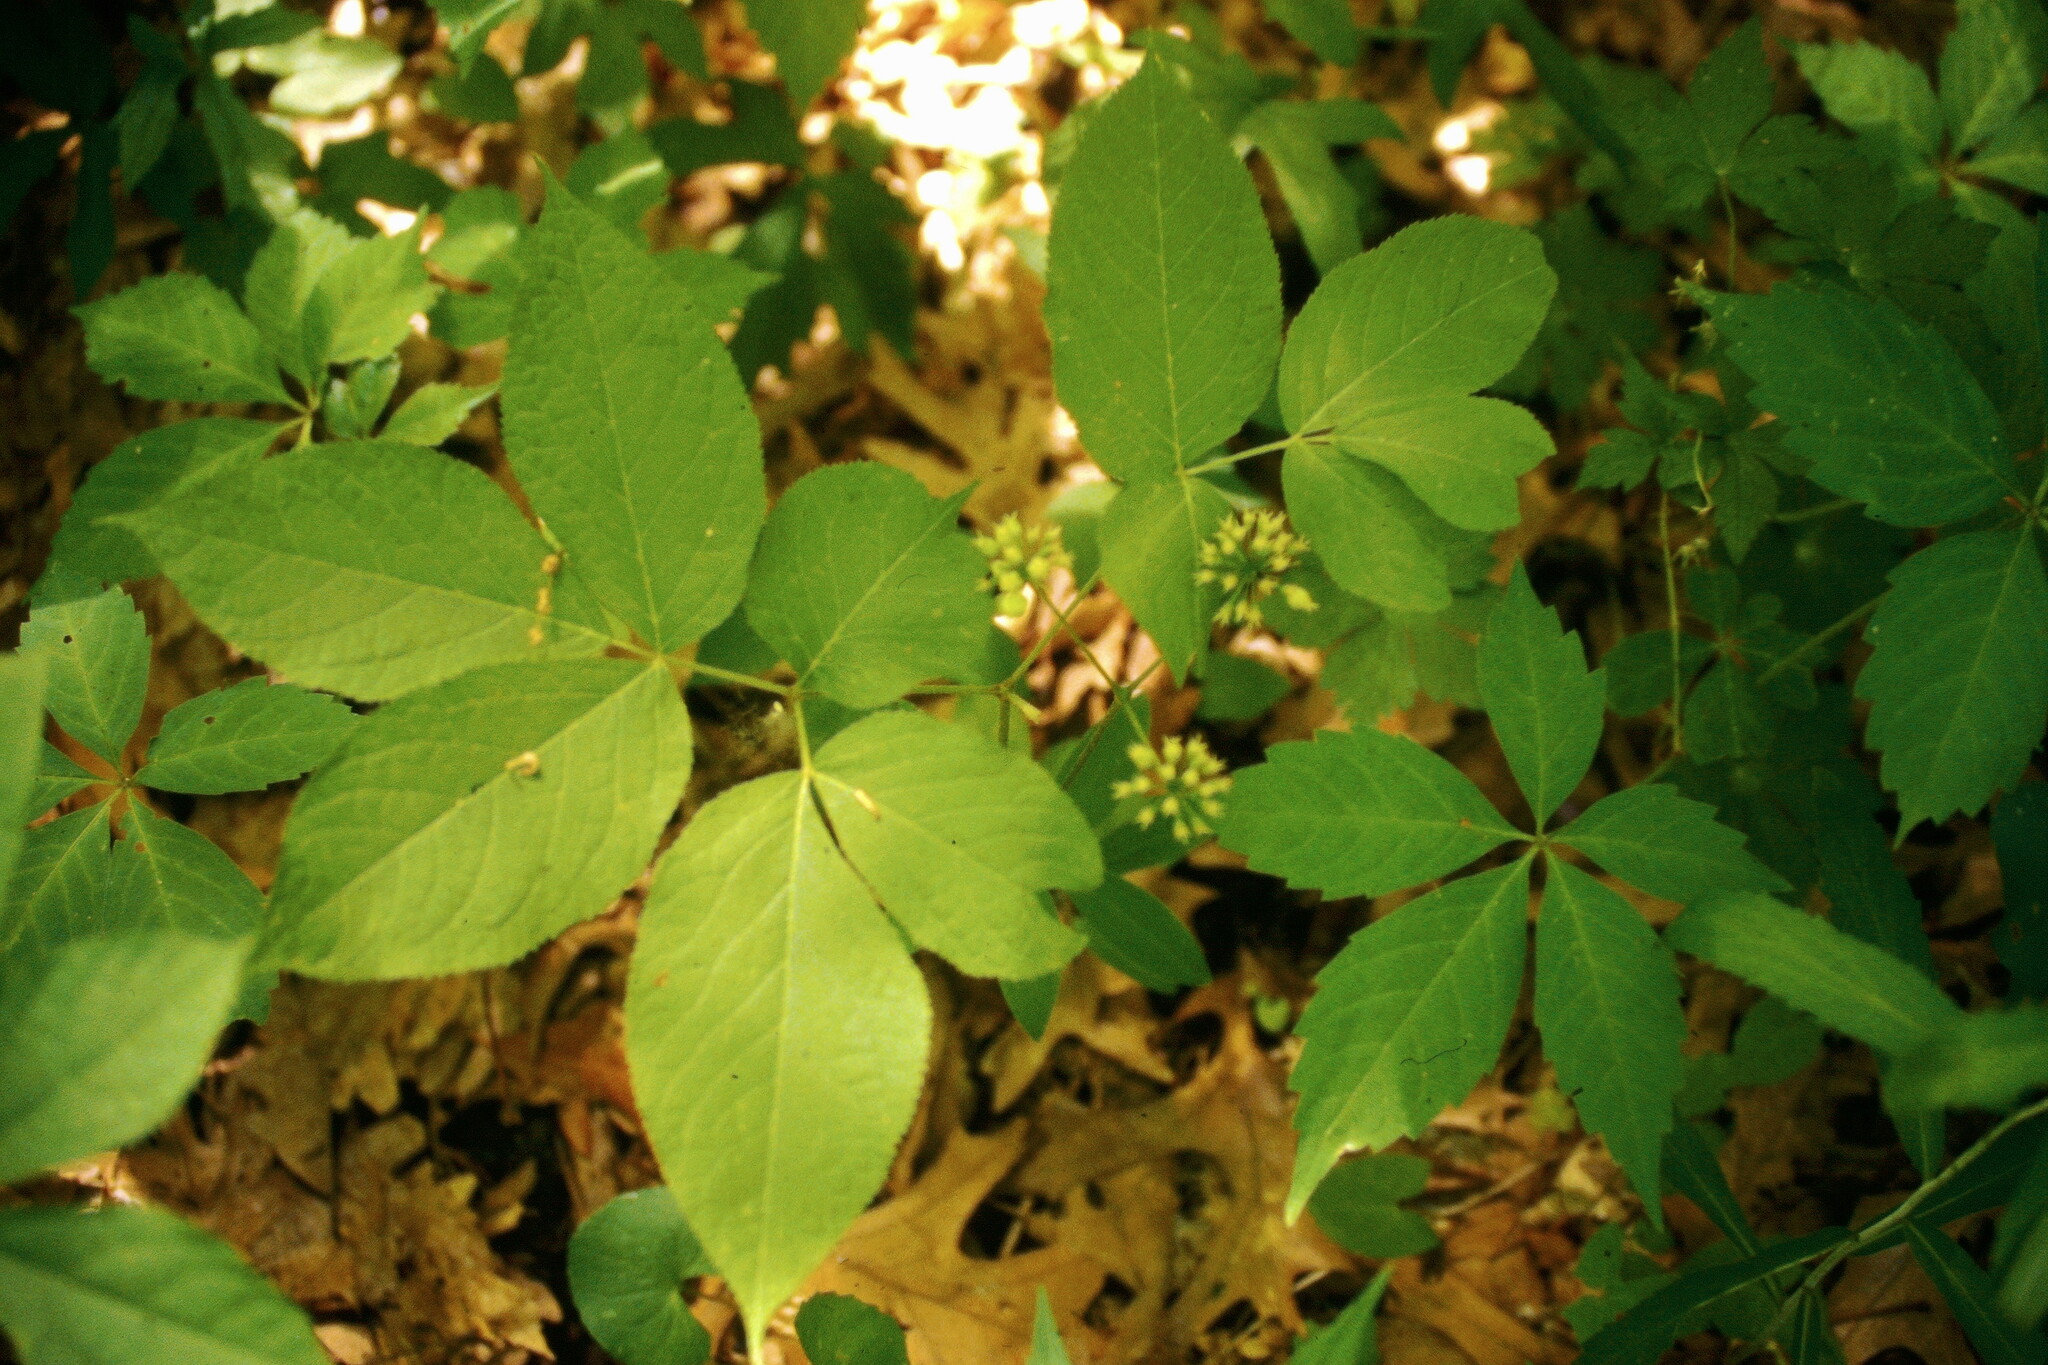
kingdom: Plantae
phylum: Tracheophyta
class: Magnoliopsida
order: Apiales
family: Araliaceae
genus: Aralia
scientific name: Aralia nudicaulis
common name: Wild sarsaparilla
